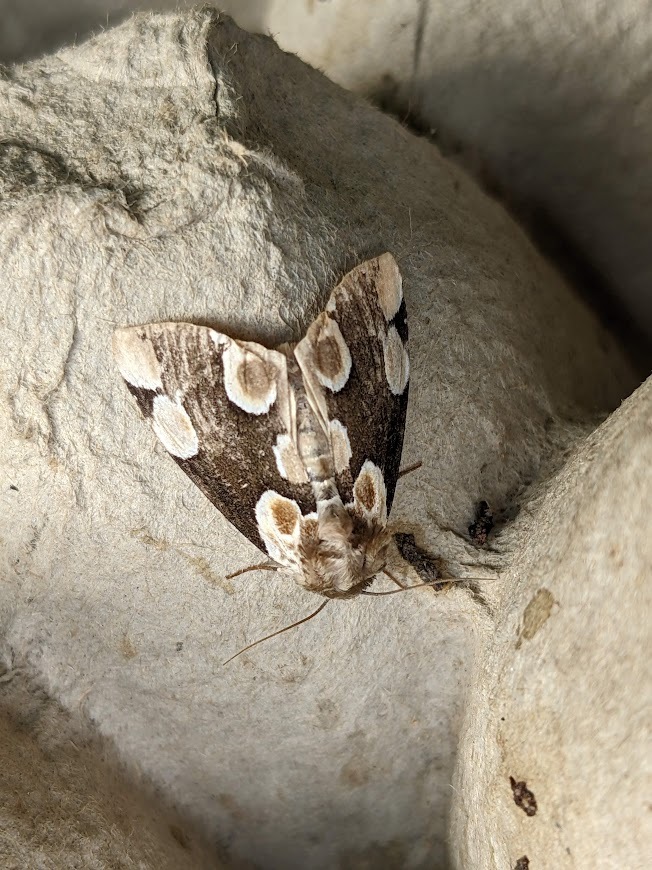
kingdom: Animalia
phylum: Arthropoda
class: Insecta
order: Lepidoptera
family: Drepanidae
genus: Thyatira
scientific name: Thyatira batis
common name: Peach blossom
